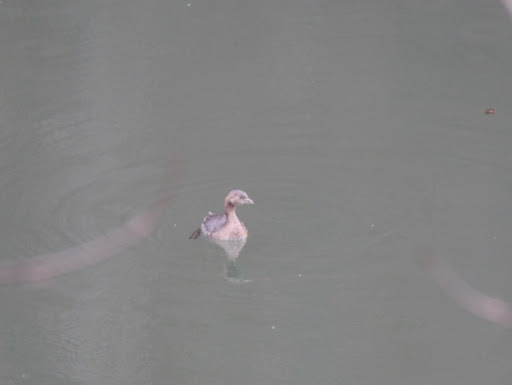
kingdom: Animalia
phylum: Chordata
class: Aves
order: Podicipediformes
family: Podicipedidae
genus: Podilymbus
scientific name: Podilymbus podiceps
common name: Pied-billed grebe
